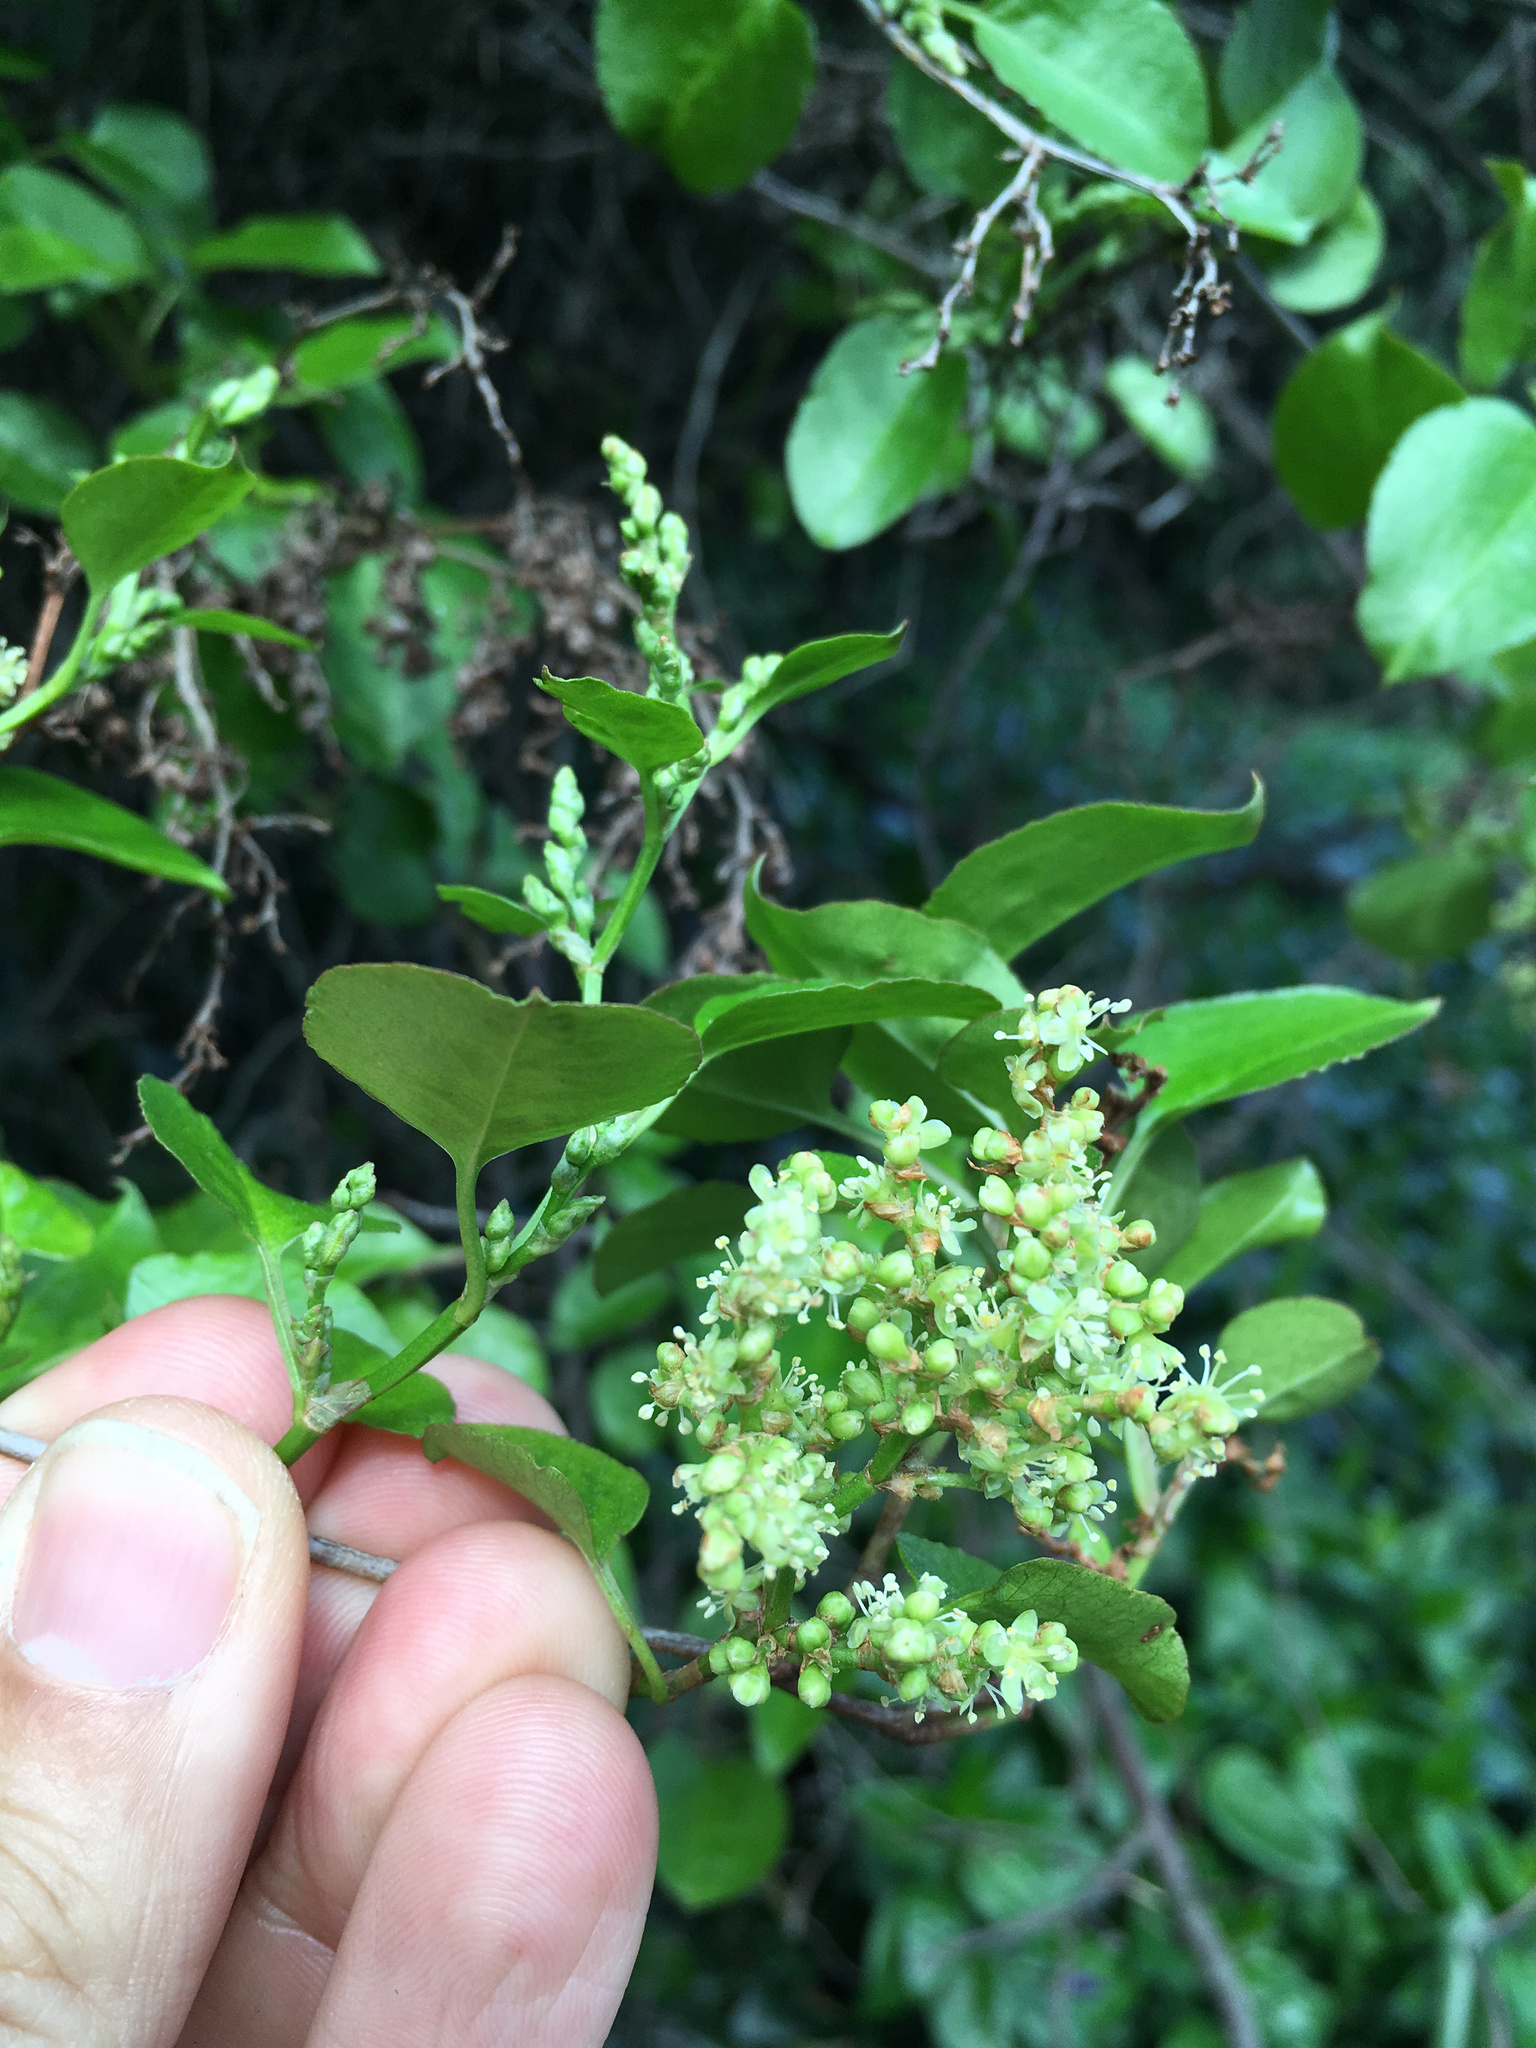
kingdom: Plantae
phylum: Tracheophyta
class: Magnoliopsida
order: Caryophyllales
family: Polygonaceae
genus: Muehlenbeckia
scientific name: Muehlenbeckia australis
